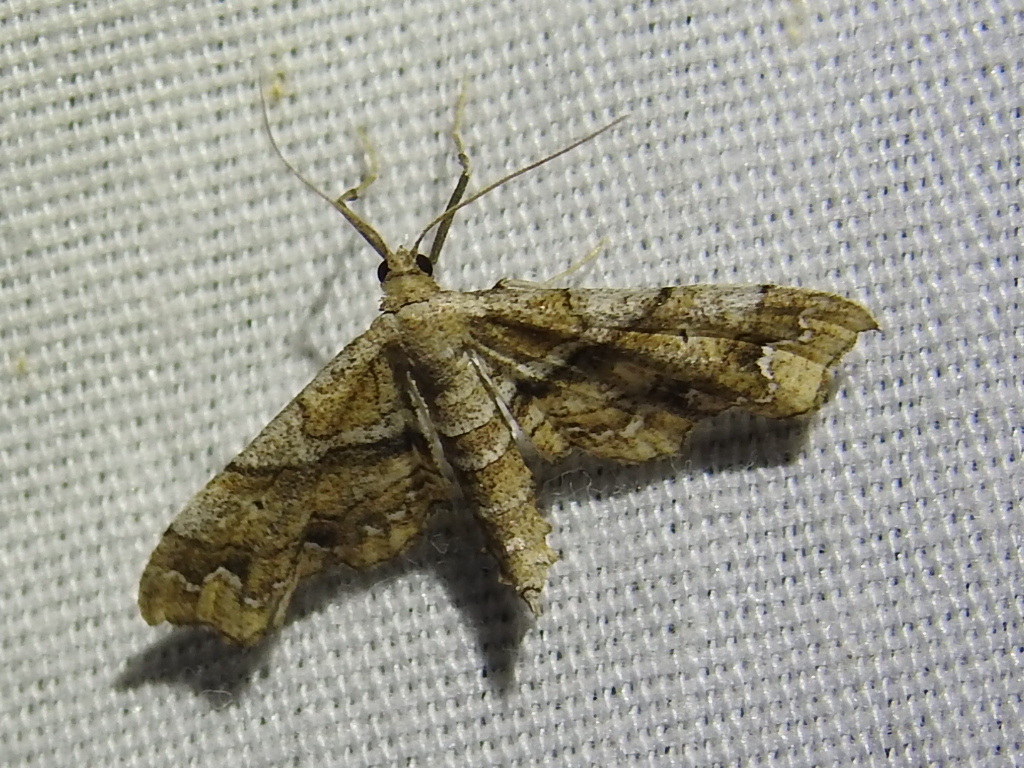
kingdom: Animalia
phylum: Arthropoda
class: Insecta
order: Lepidoptera
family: Geometridae
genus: Odontoptila
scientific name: Odontoptila obrimo
